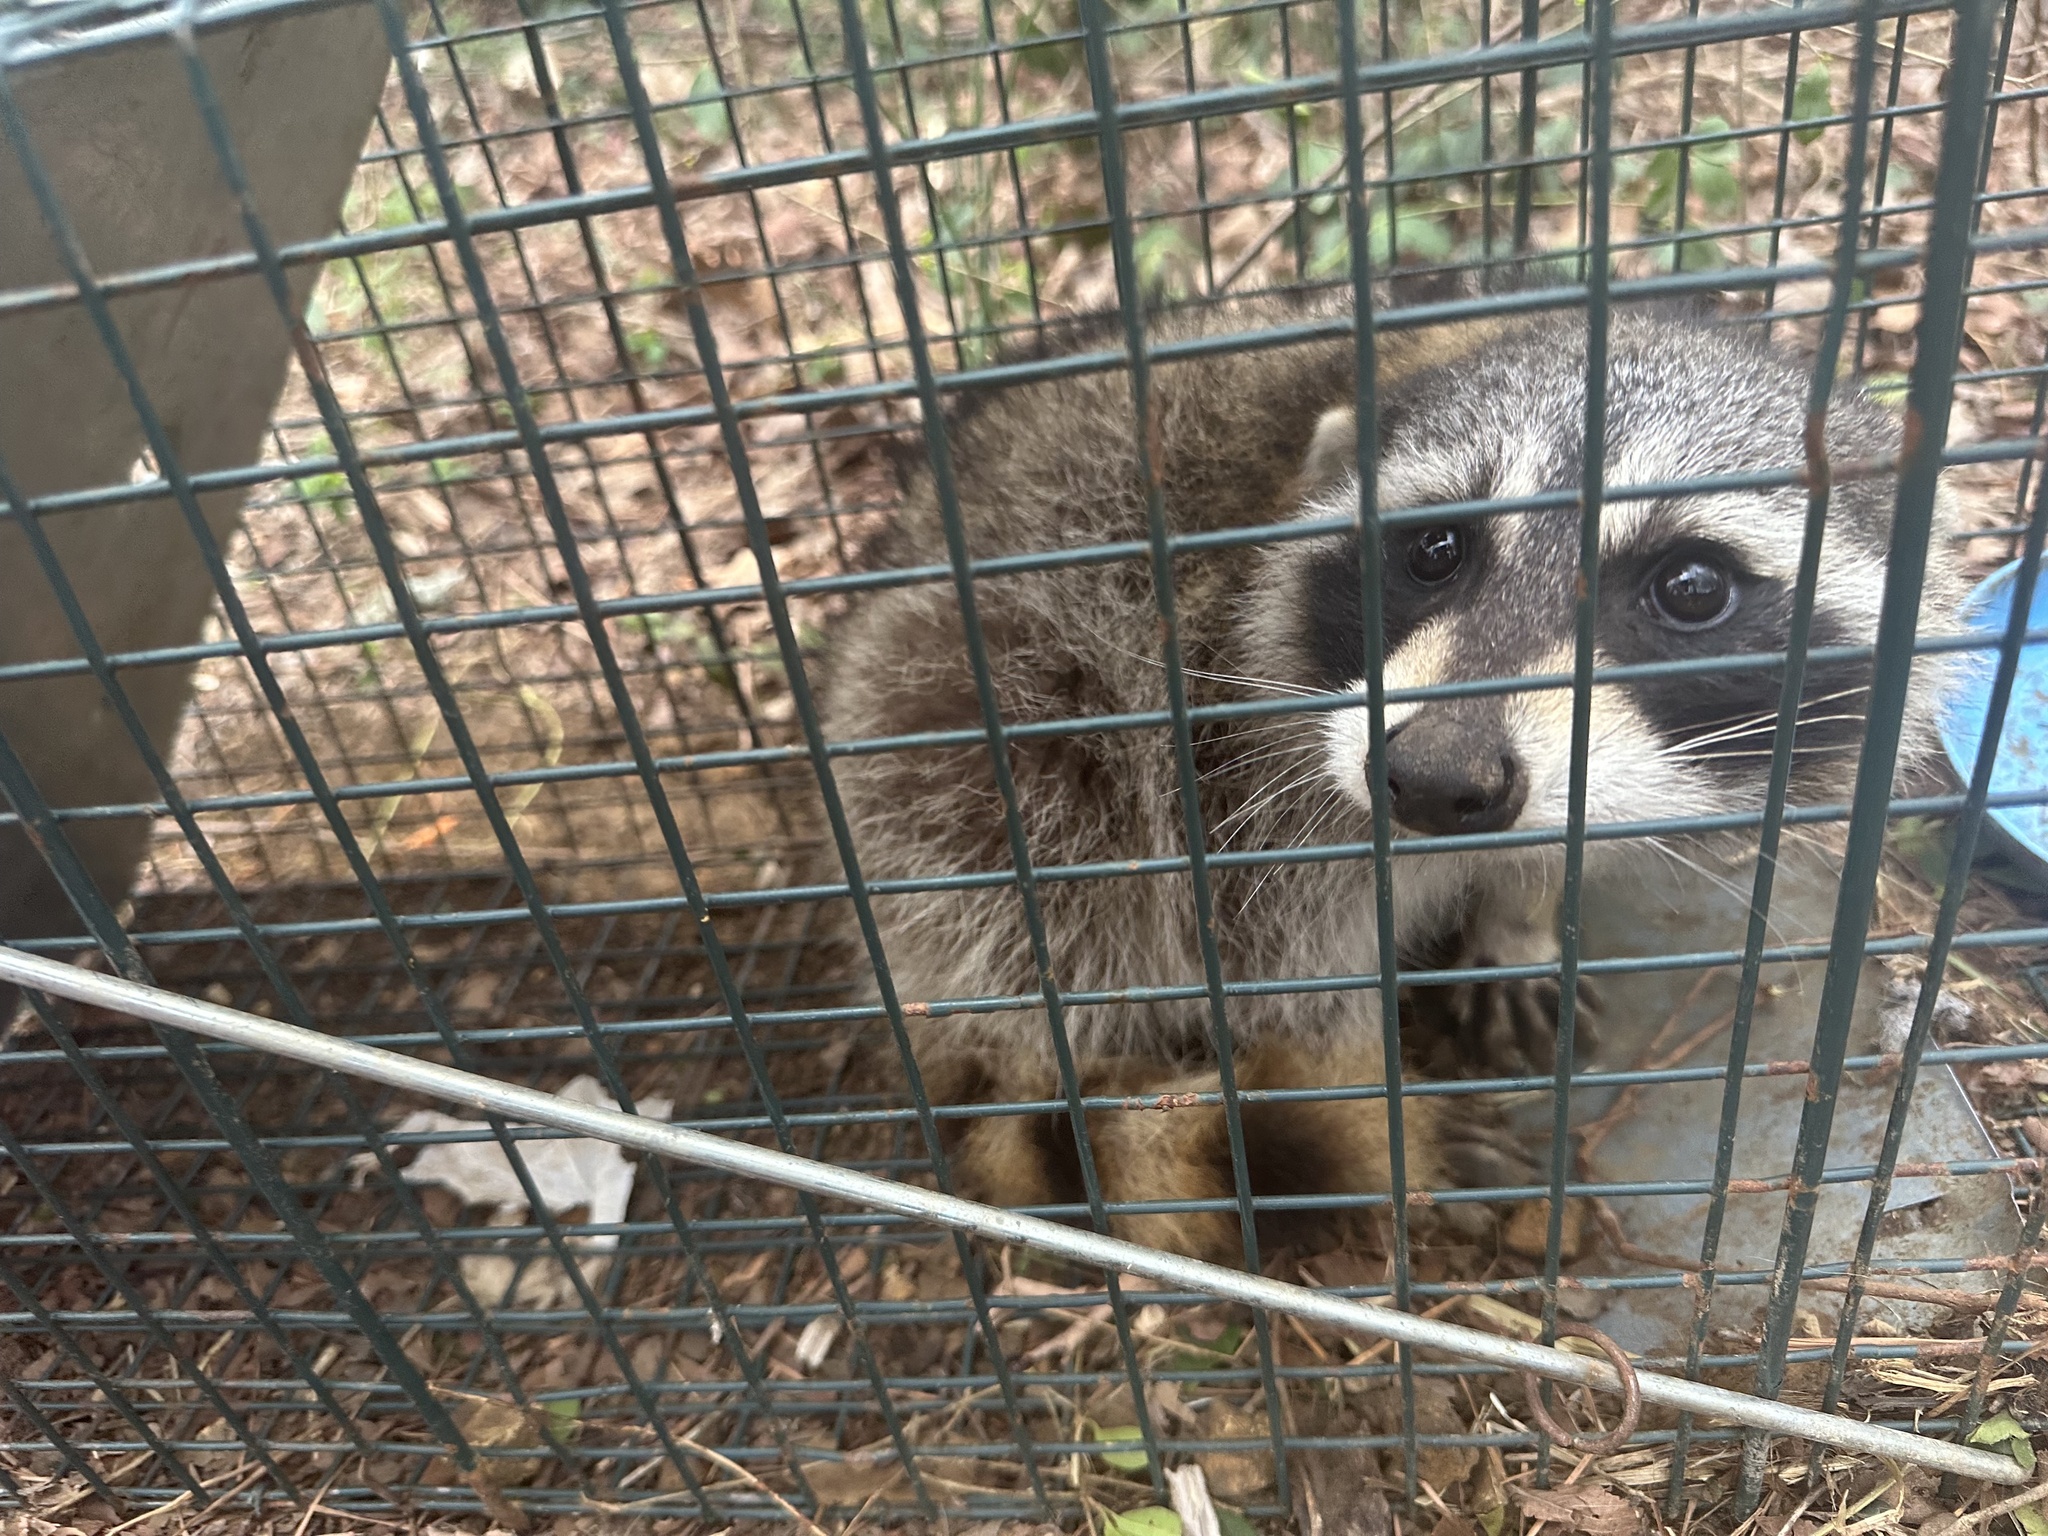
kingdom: Animalia
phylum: Chordata
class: Mammalia
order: Carnivora
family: Procyonidae
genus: Procyon
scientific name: Procyon lotor
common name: Raccoon
